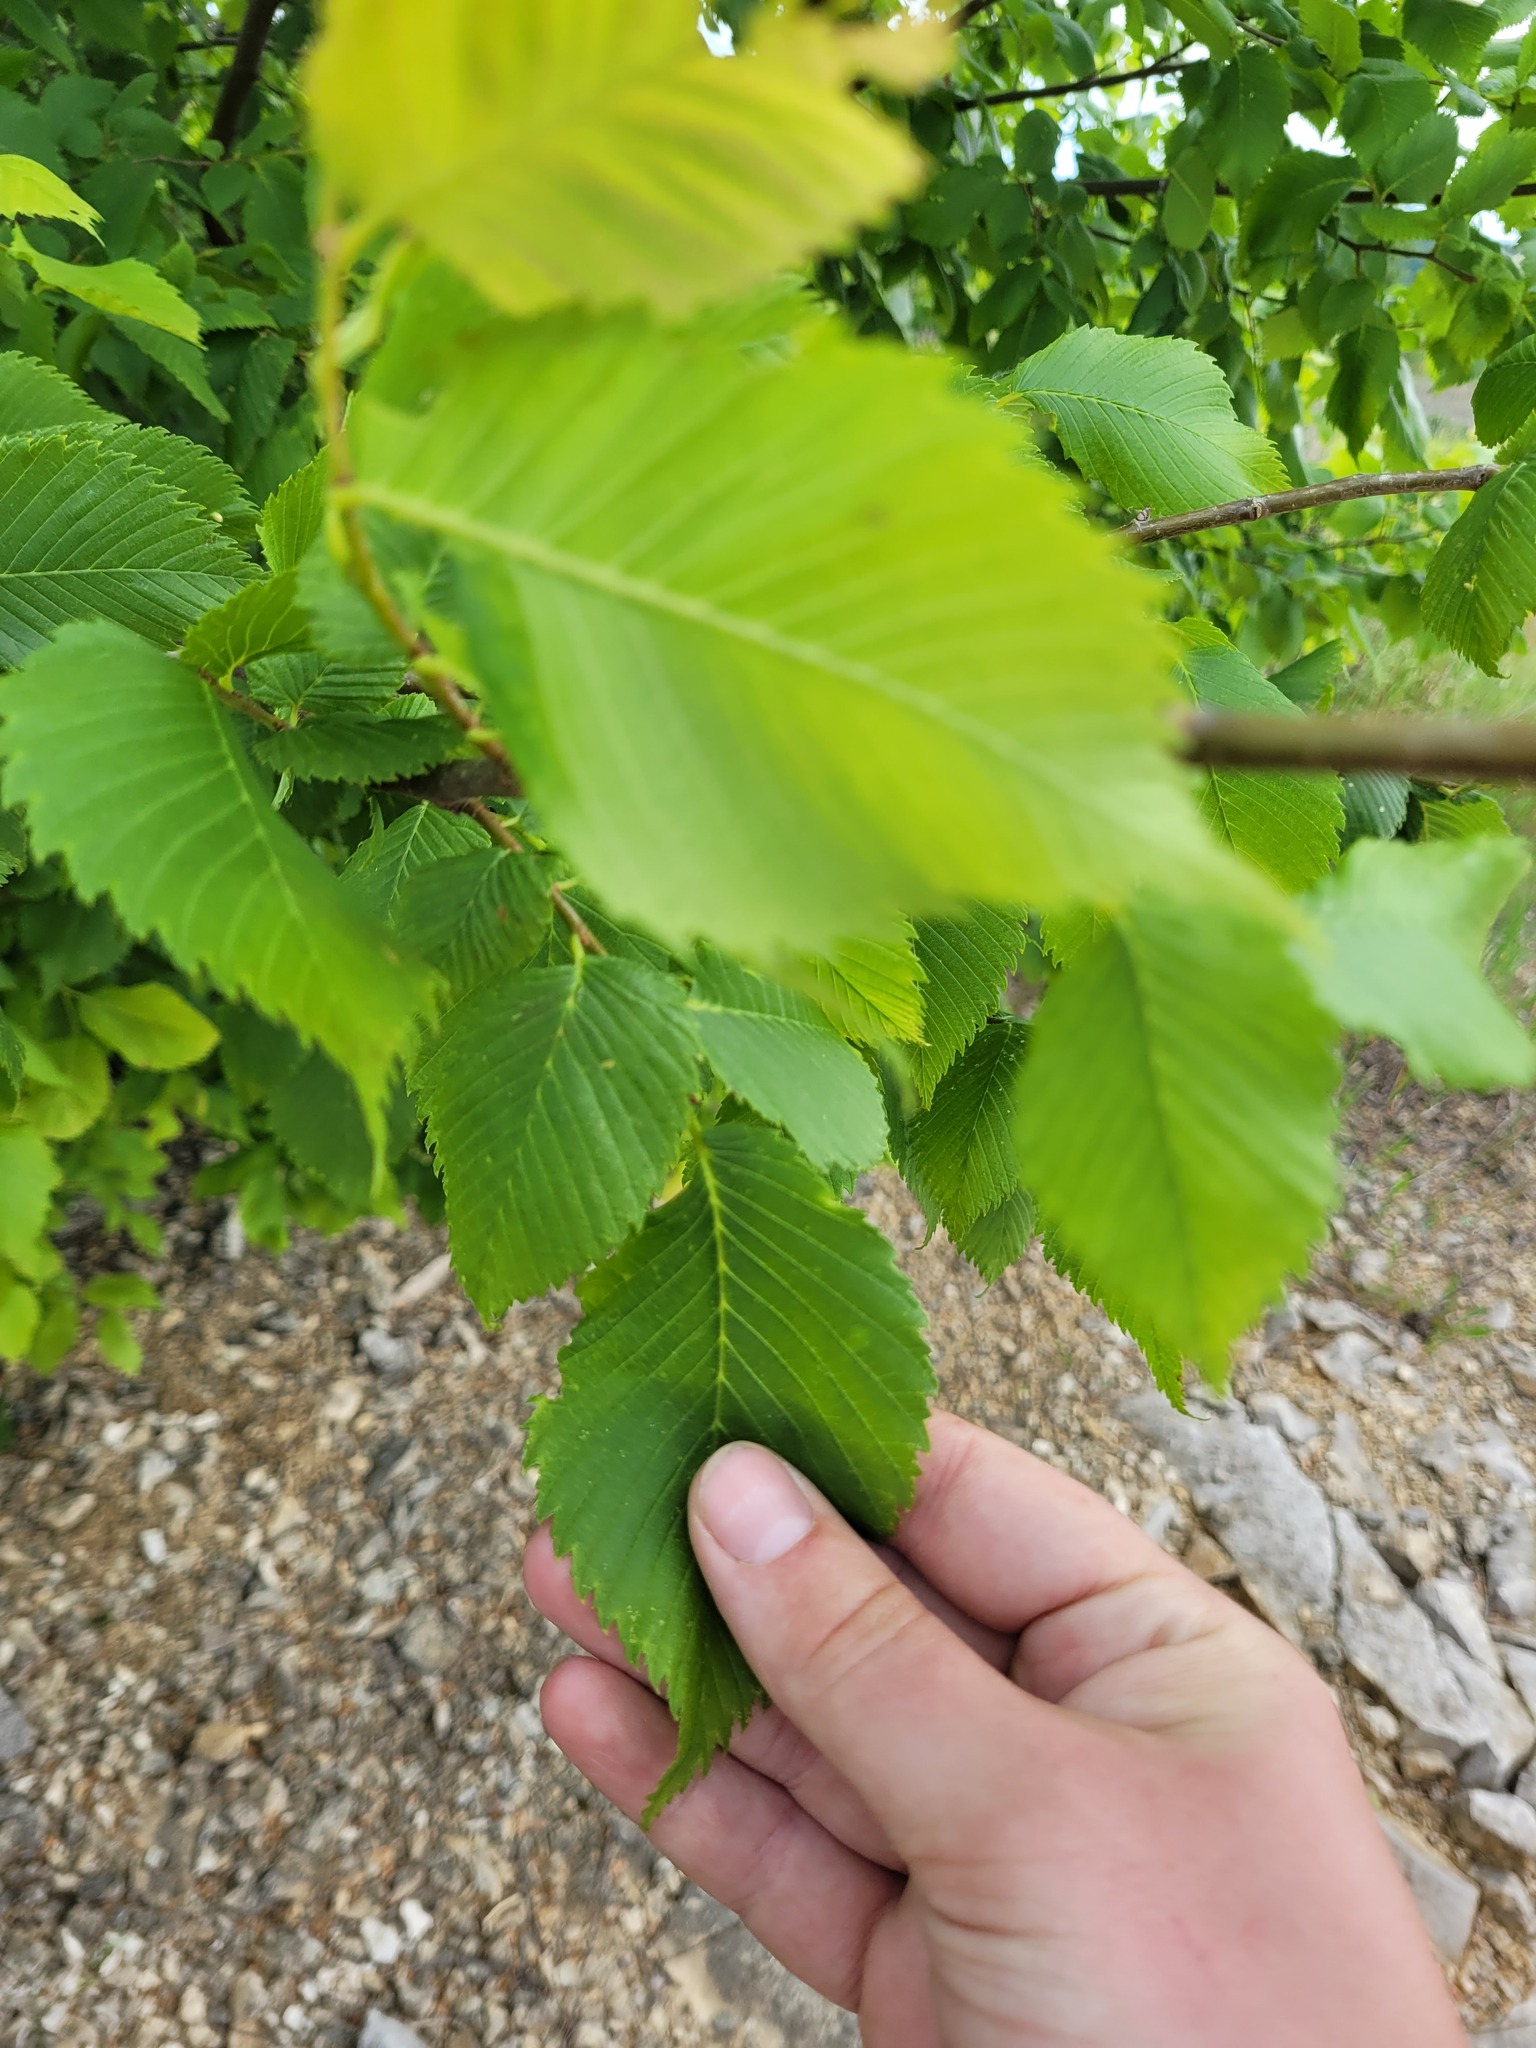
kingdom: Plantae
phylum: Tracheophyta
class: Magnoliopsida
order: Rosales
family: Ulmaceae
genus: Ulmus
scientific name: Ulmus laevis
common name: European white-elm
